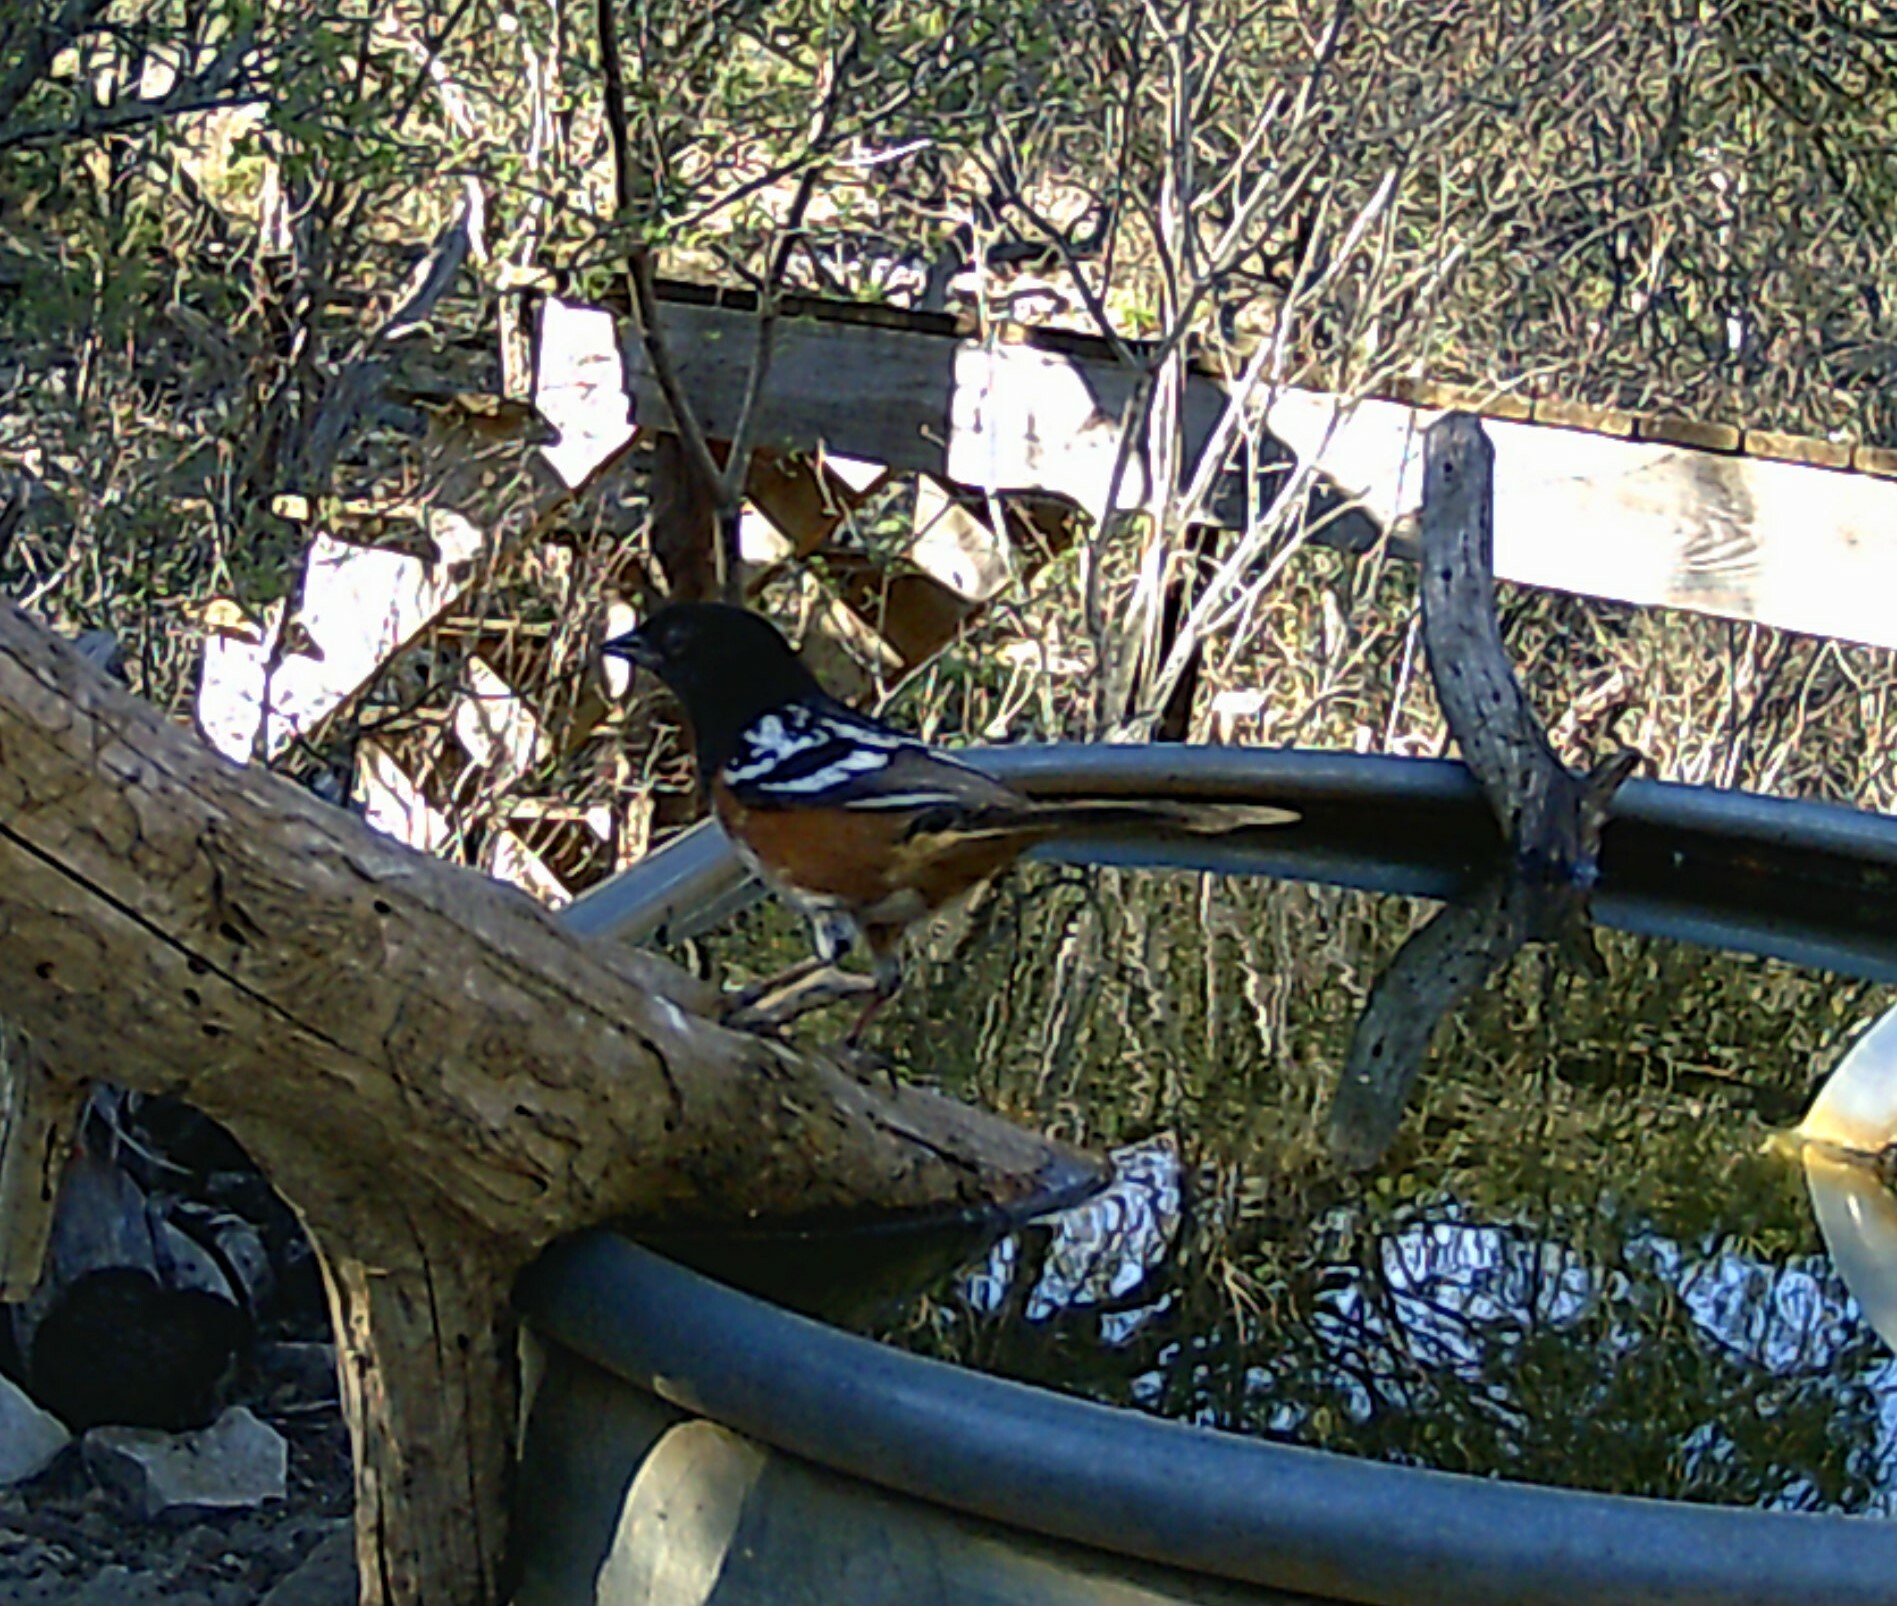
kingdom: Animalia
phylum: Chordata
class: Aves
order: Passeriformes
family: Passerellidae
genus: Pipilo
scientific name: Pipilo maculatus
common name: Spotted towhee
